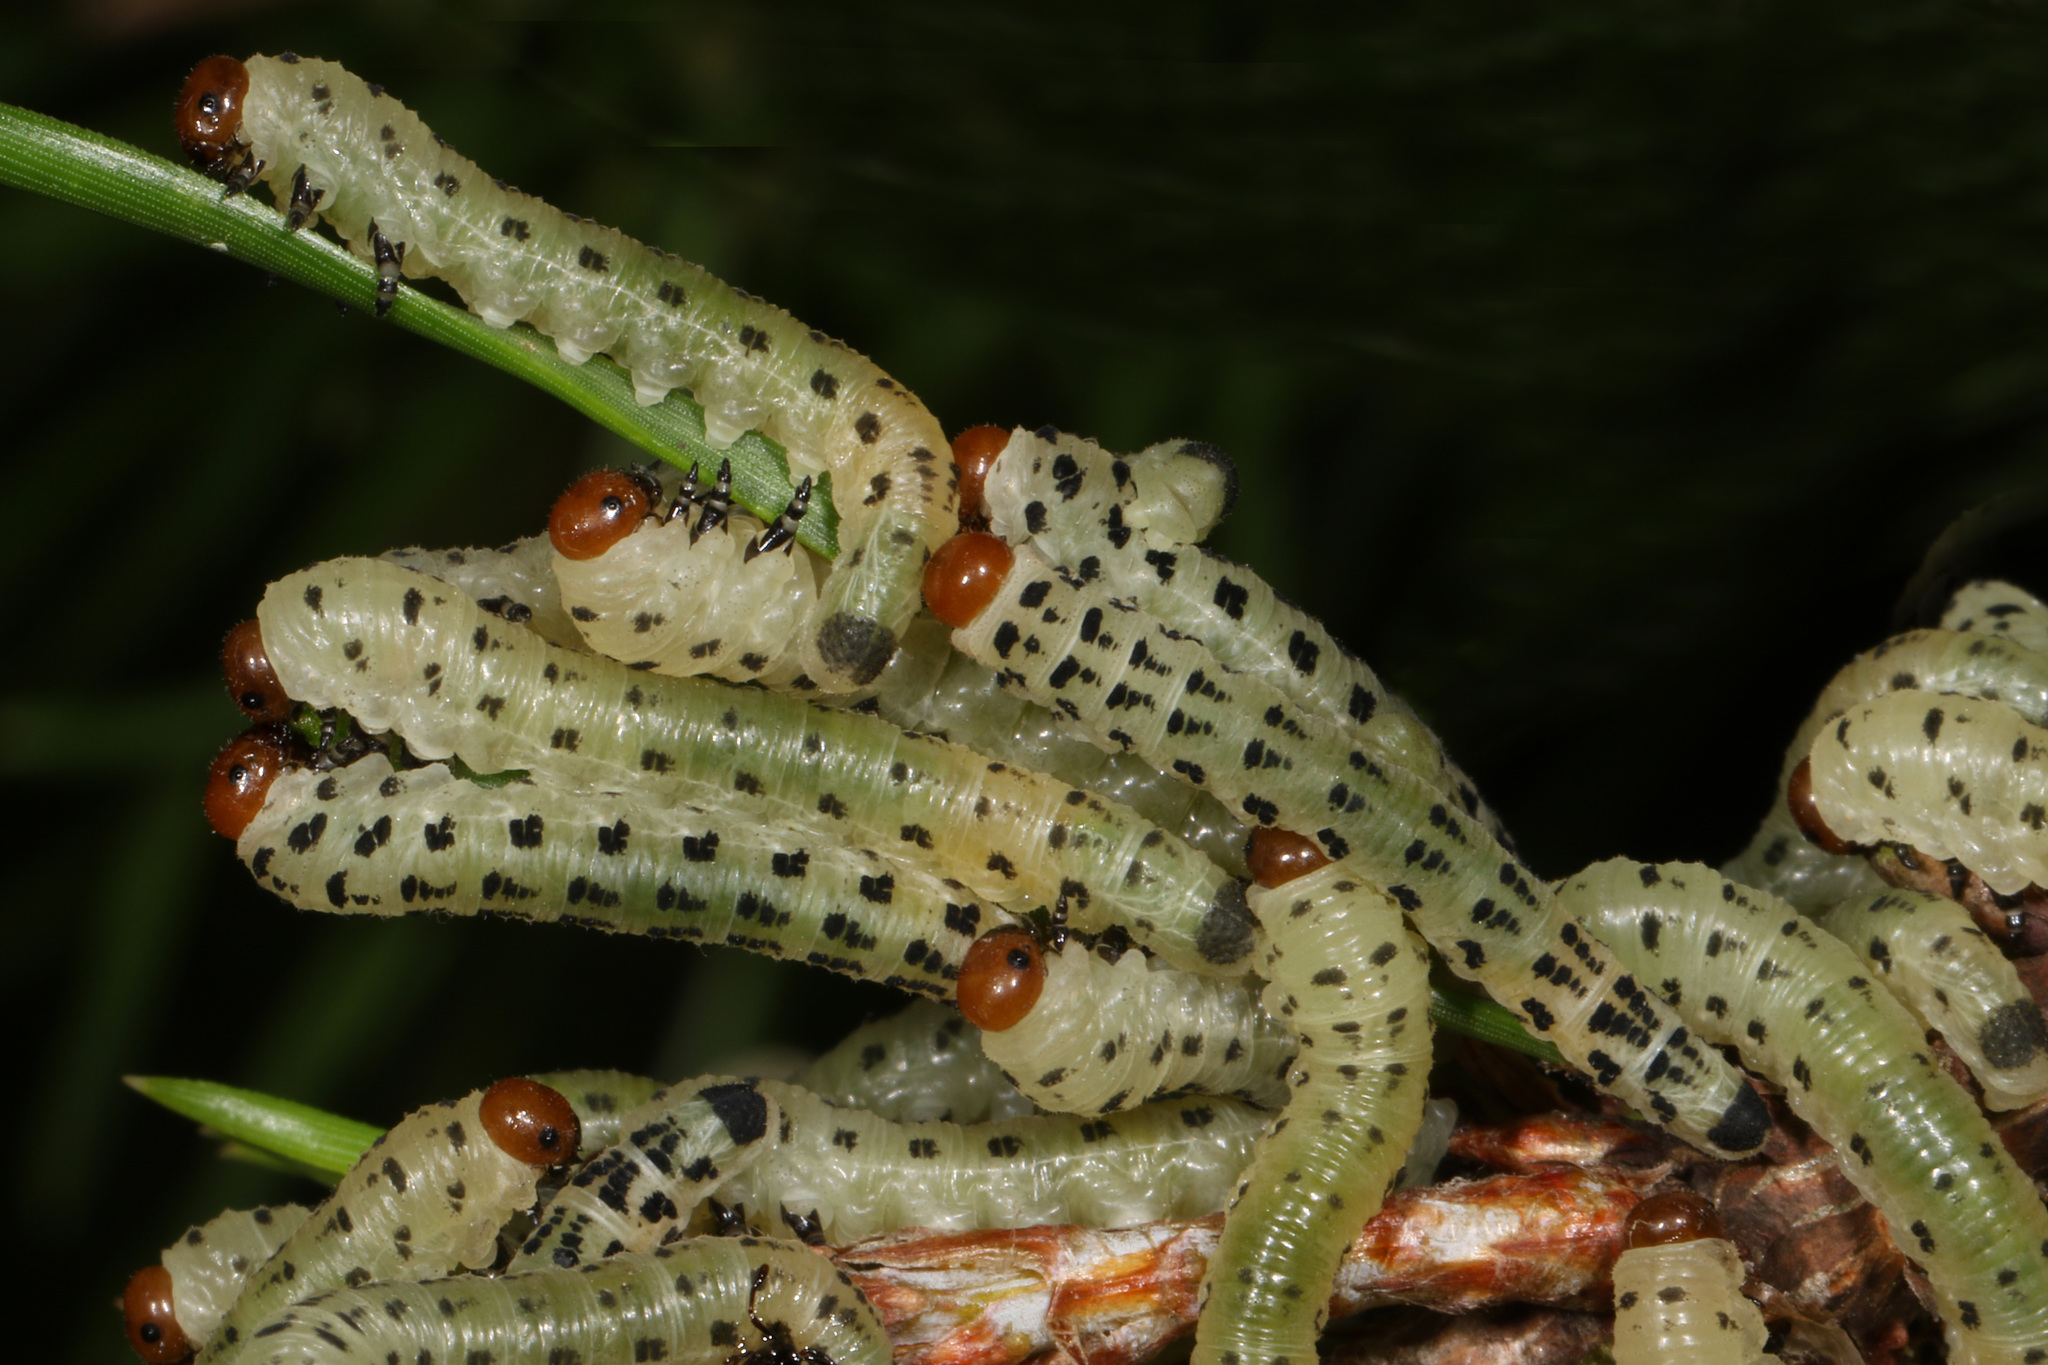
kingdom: Animalia
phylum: Arthropoda
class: Insecta
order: Hymenoptera
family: Diprionidae
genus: Neodiprion
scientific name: Neodiprion lecontei
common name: Redheaded pine sawfly
